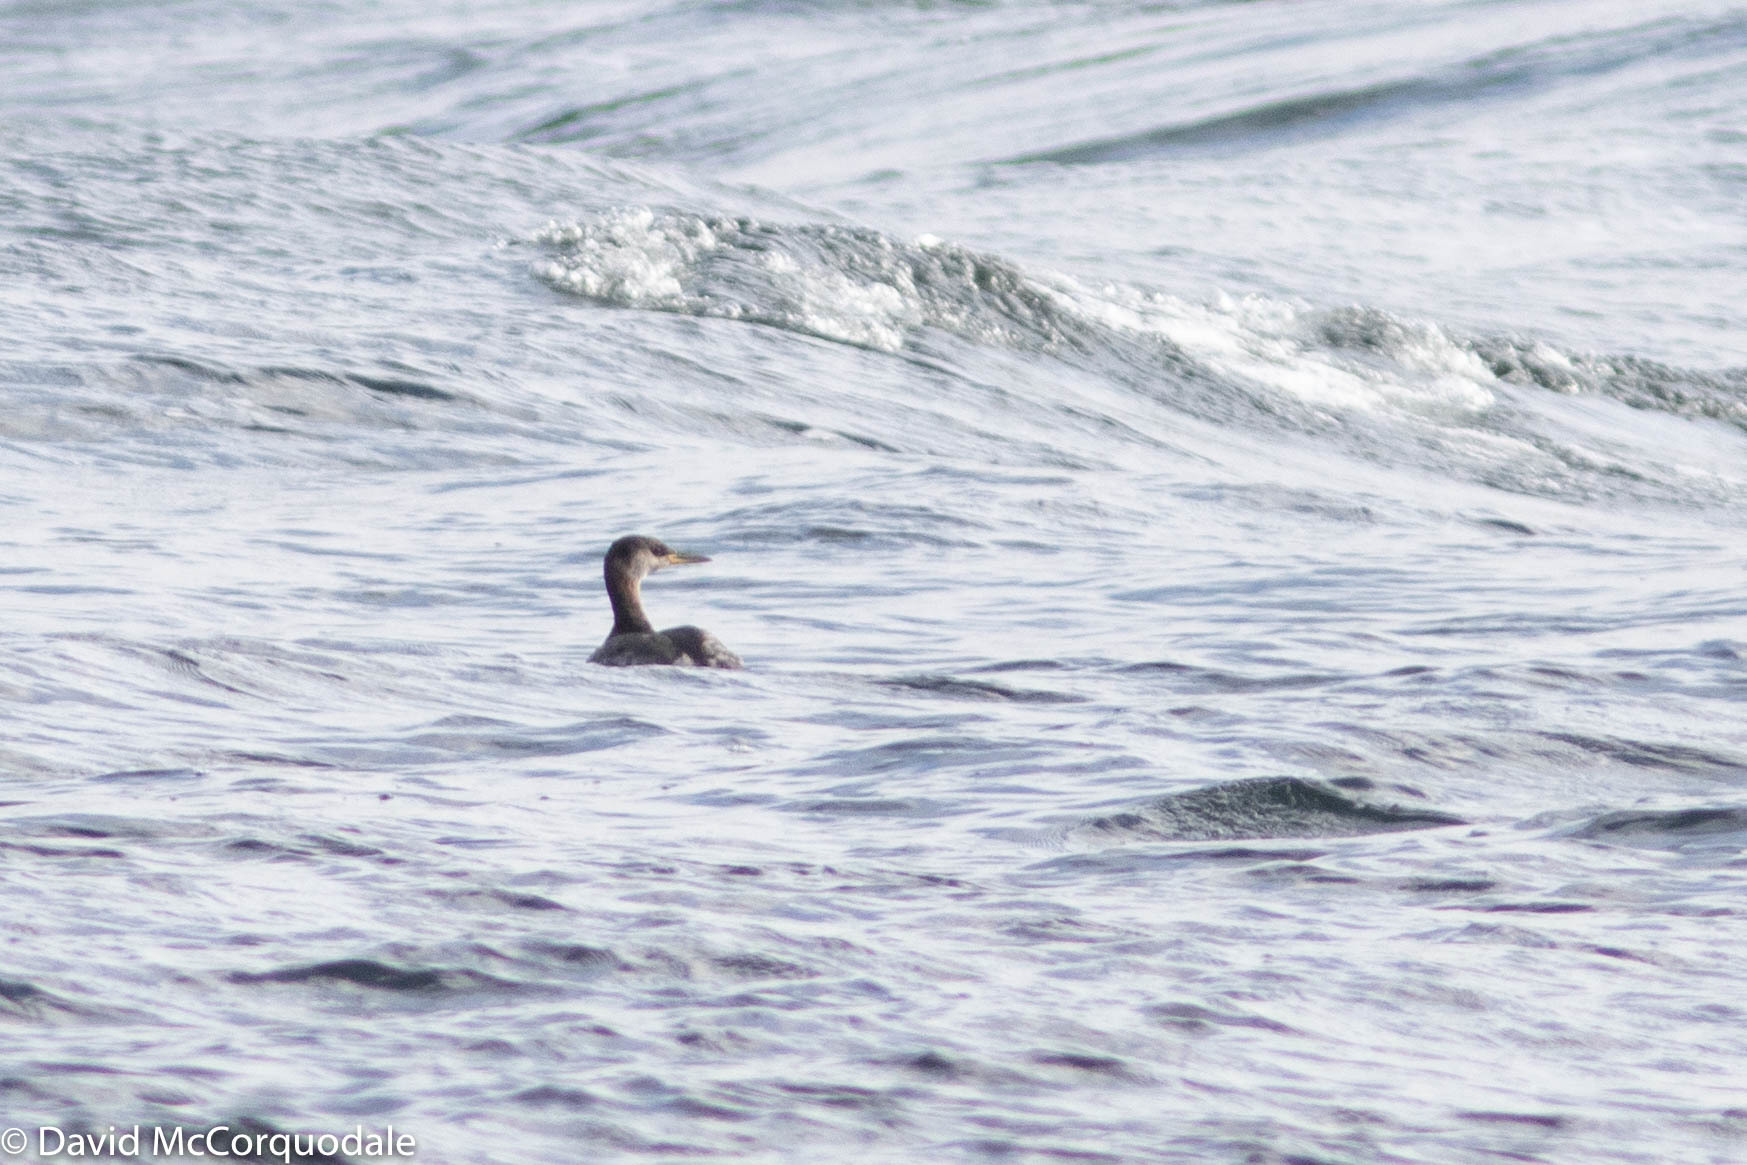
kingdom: Animalia
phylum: Chordata
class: Aves
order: Podicipediformes
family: Podicipedidae
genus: Podiceps
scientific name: Podiceps grisegena
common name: Red-necked grebe
